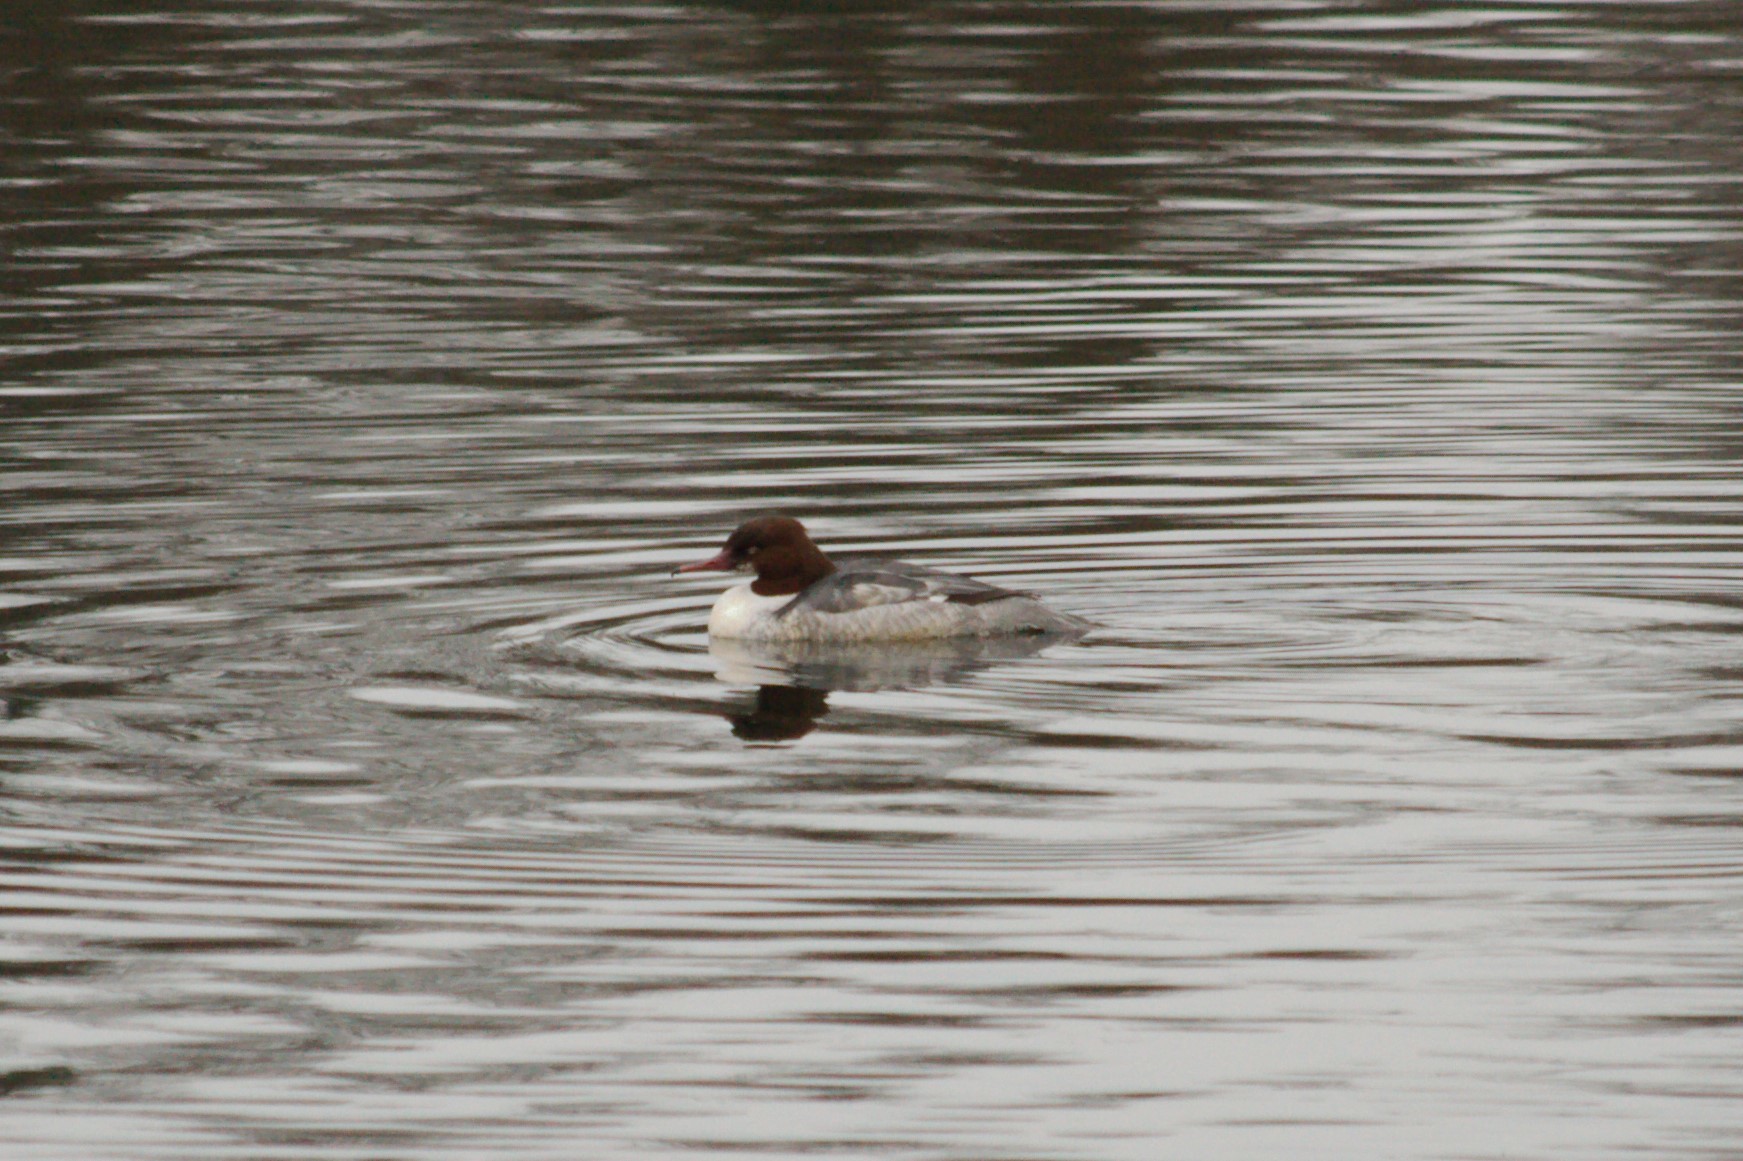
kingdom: Animalia
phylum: Chordata
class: Aves
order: Anseriformes
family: Anatidae
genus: Mergus
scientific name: Mergus merganser
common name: Common merganser
